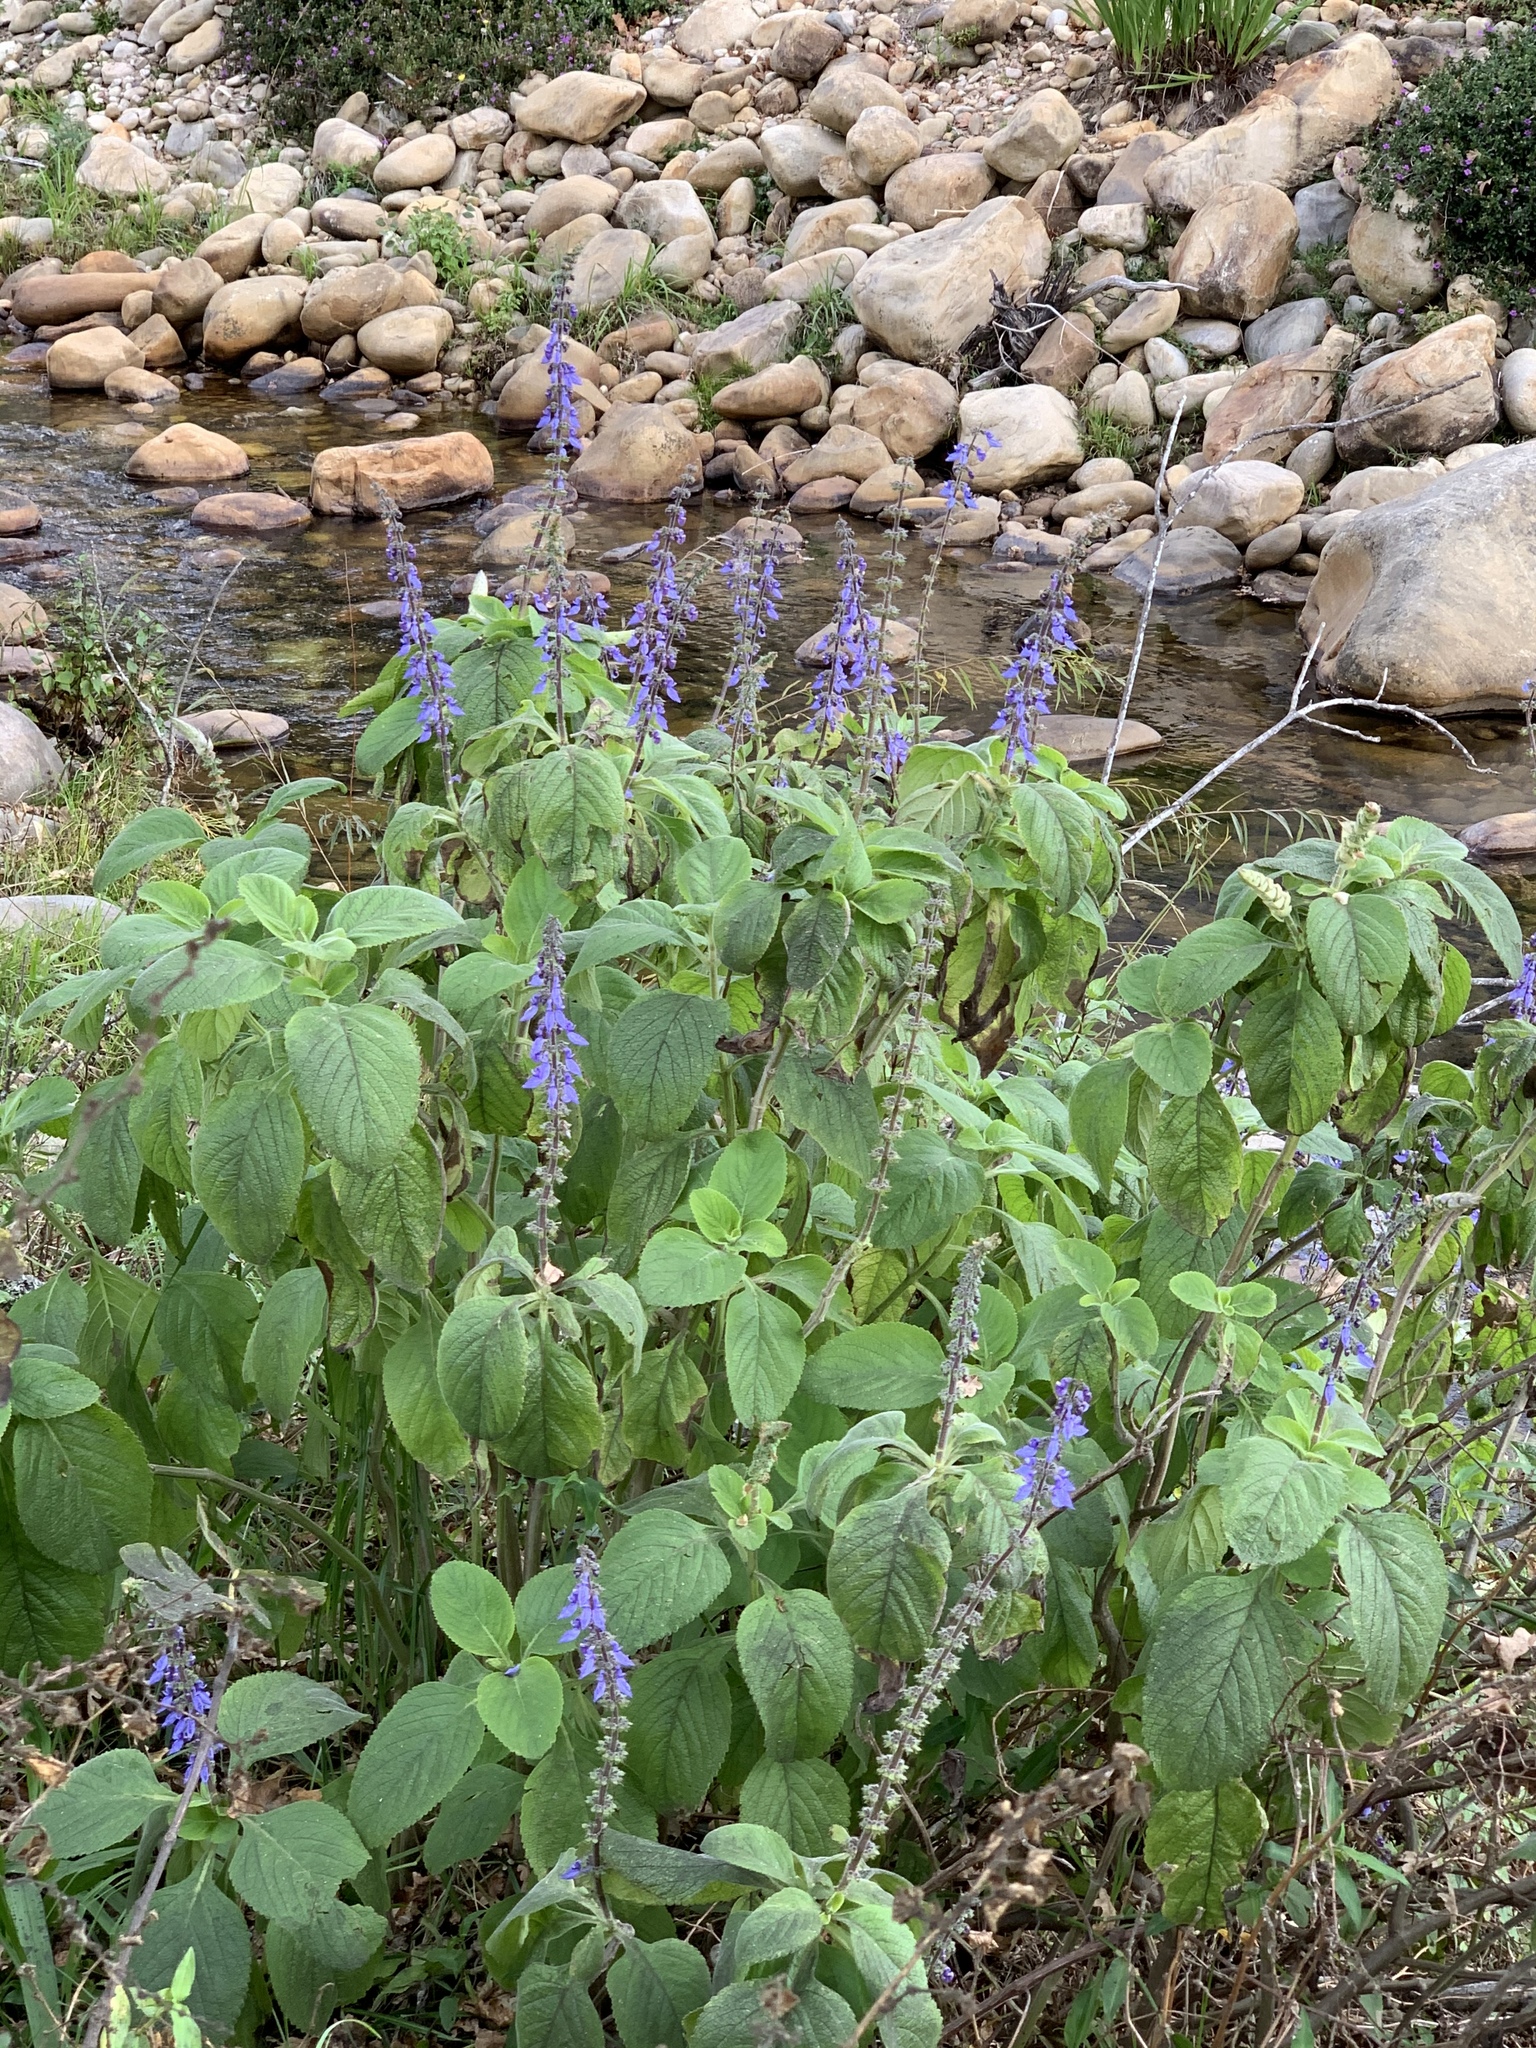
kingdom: Plantae
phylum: Tracheophyta
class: Magnoliopsida
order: Lamiales
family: Lamiaceae
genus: Coleus
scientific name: Coleus barbatus
